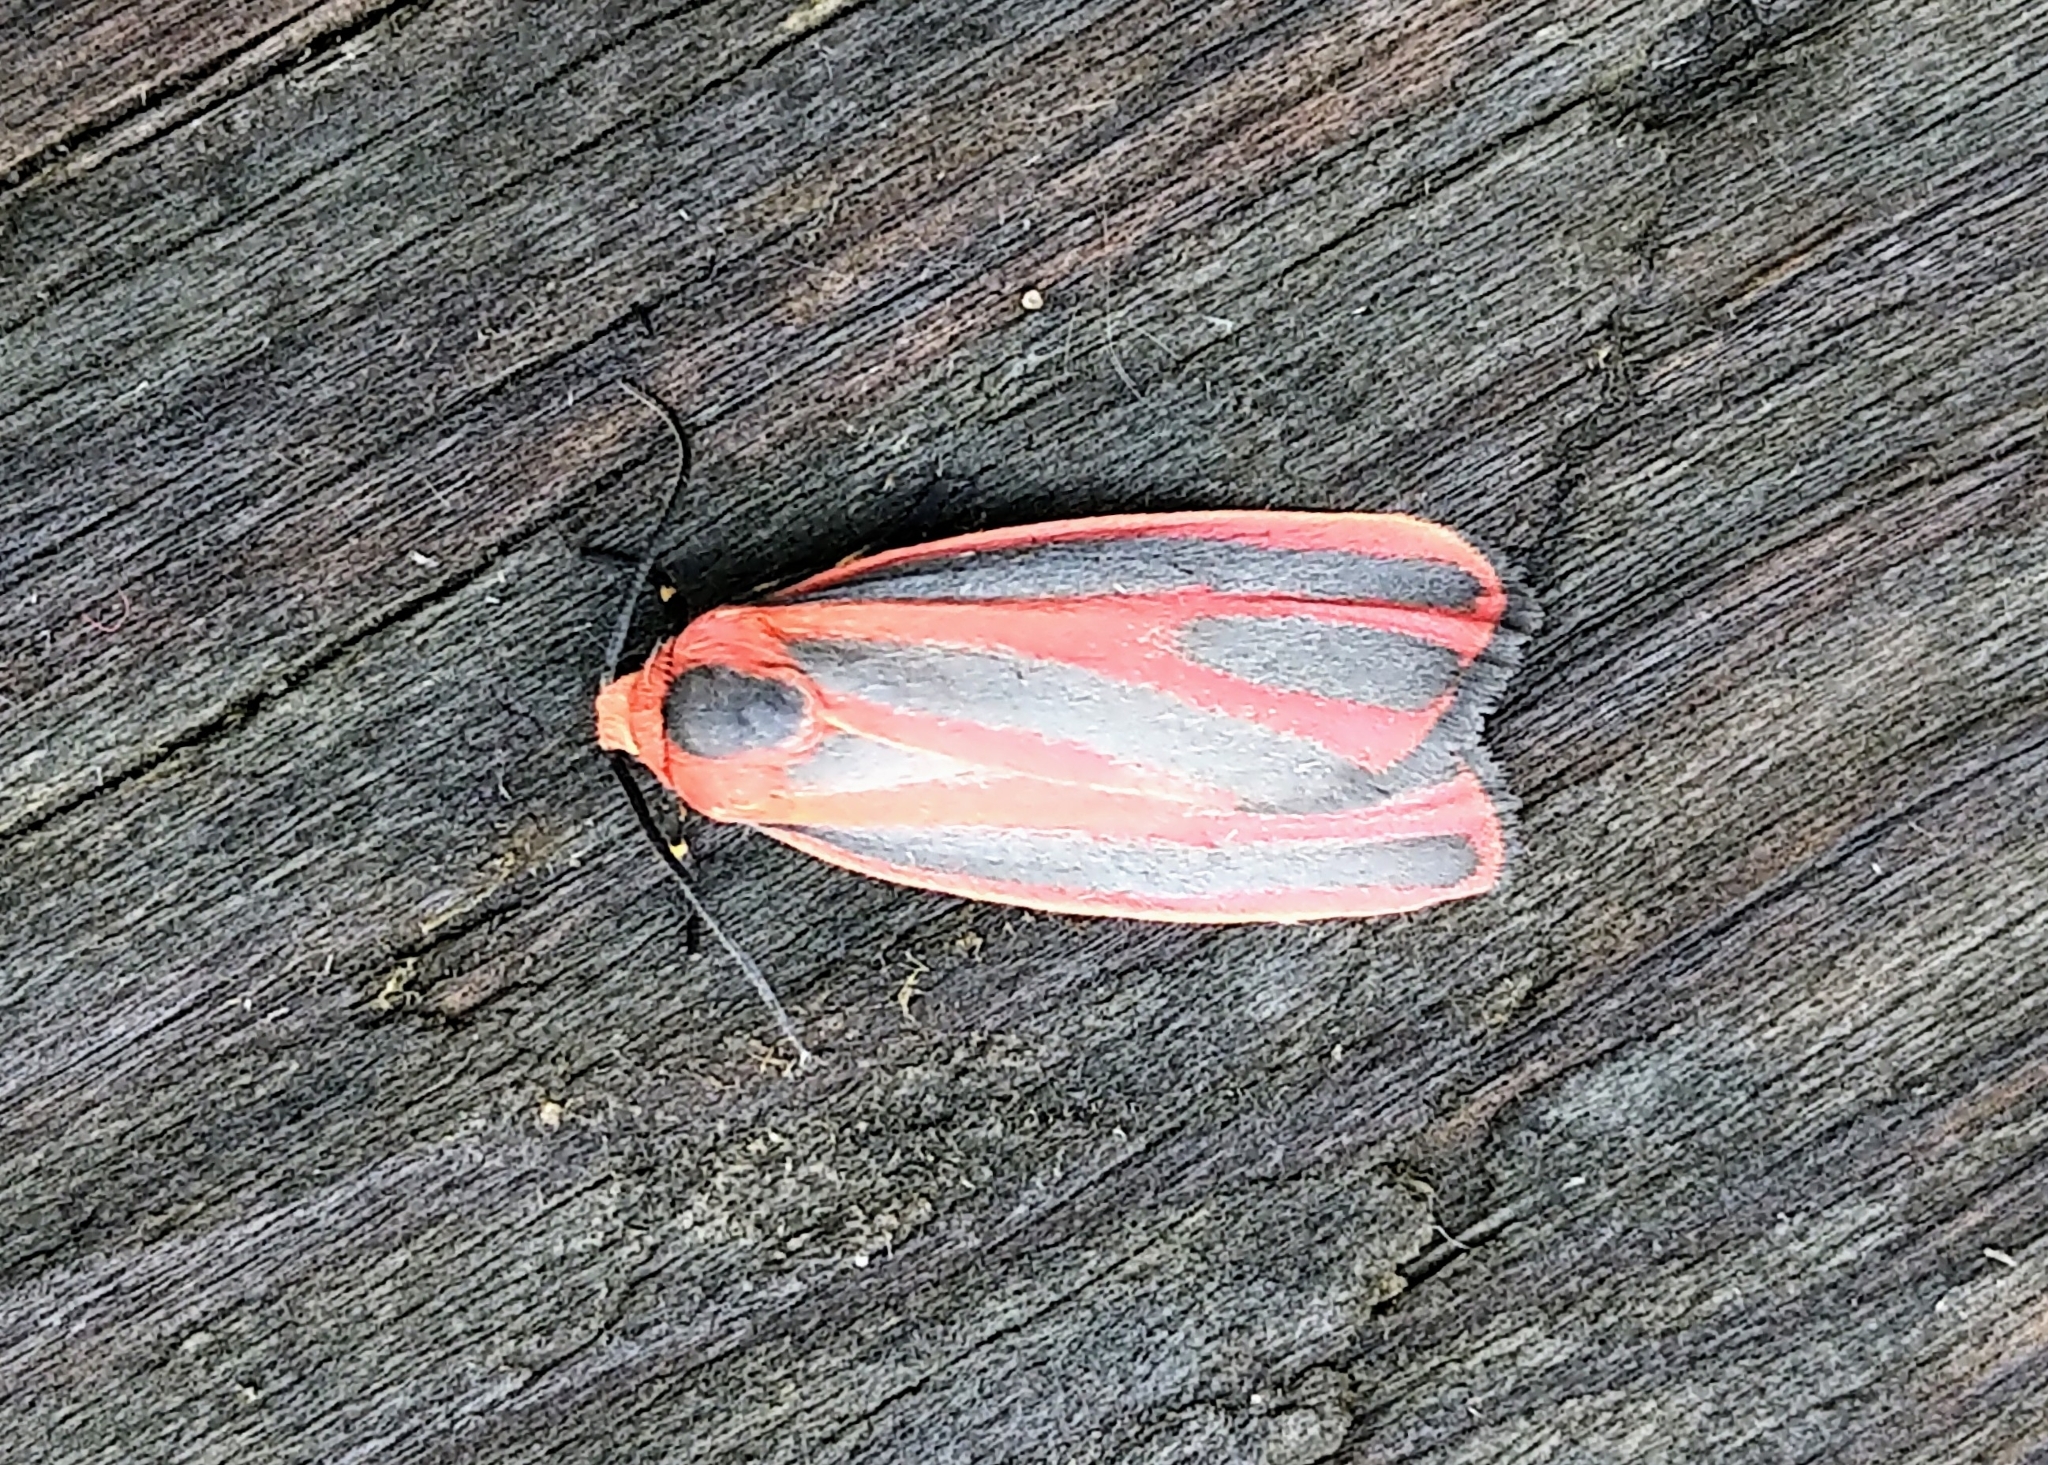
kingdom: Animalia
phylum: Arthropoda
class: Insecta
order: Lepidoptera
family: Erebidae
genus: Hypoprepia
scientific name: Hypoprepia miniata
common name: Scarlet-winged lichen moth
